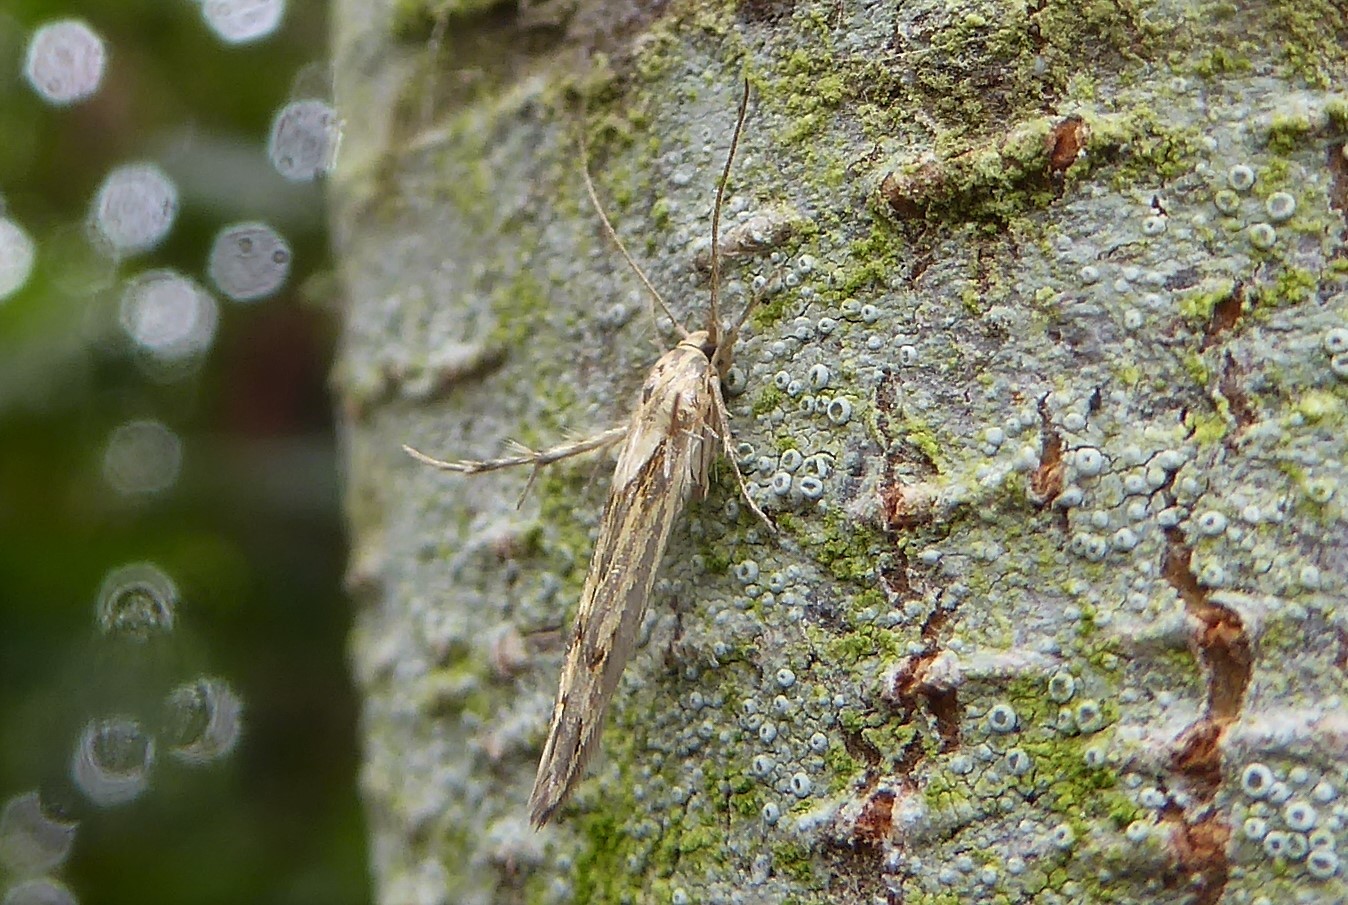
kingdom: Animalia
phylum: Arthropoda
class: Insecta
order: Lepidoptera
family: Stathmopodidae
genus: Stathmopoda
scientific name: Stathmopoda plumbiflua
